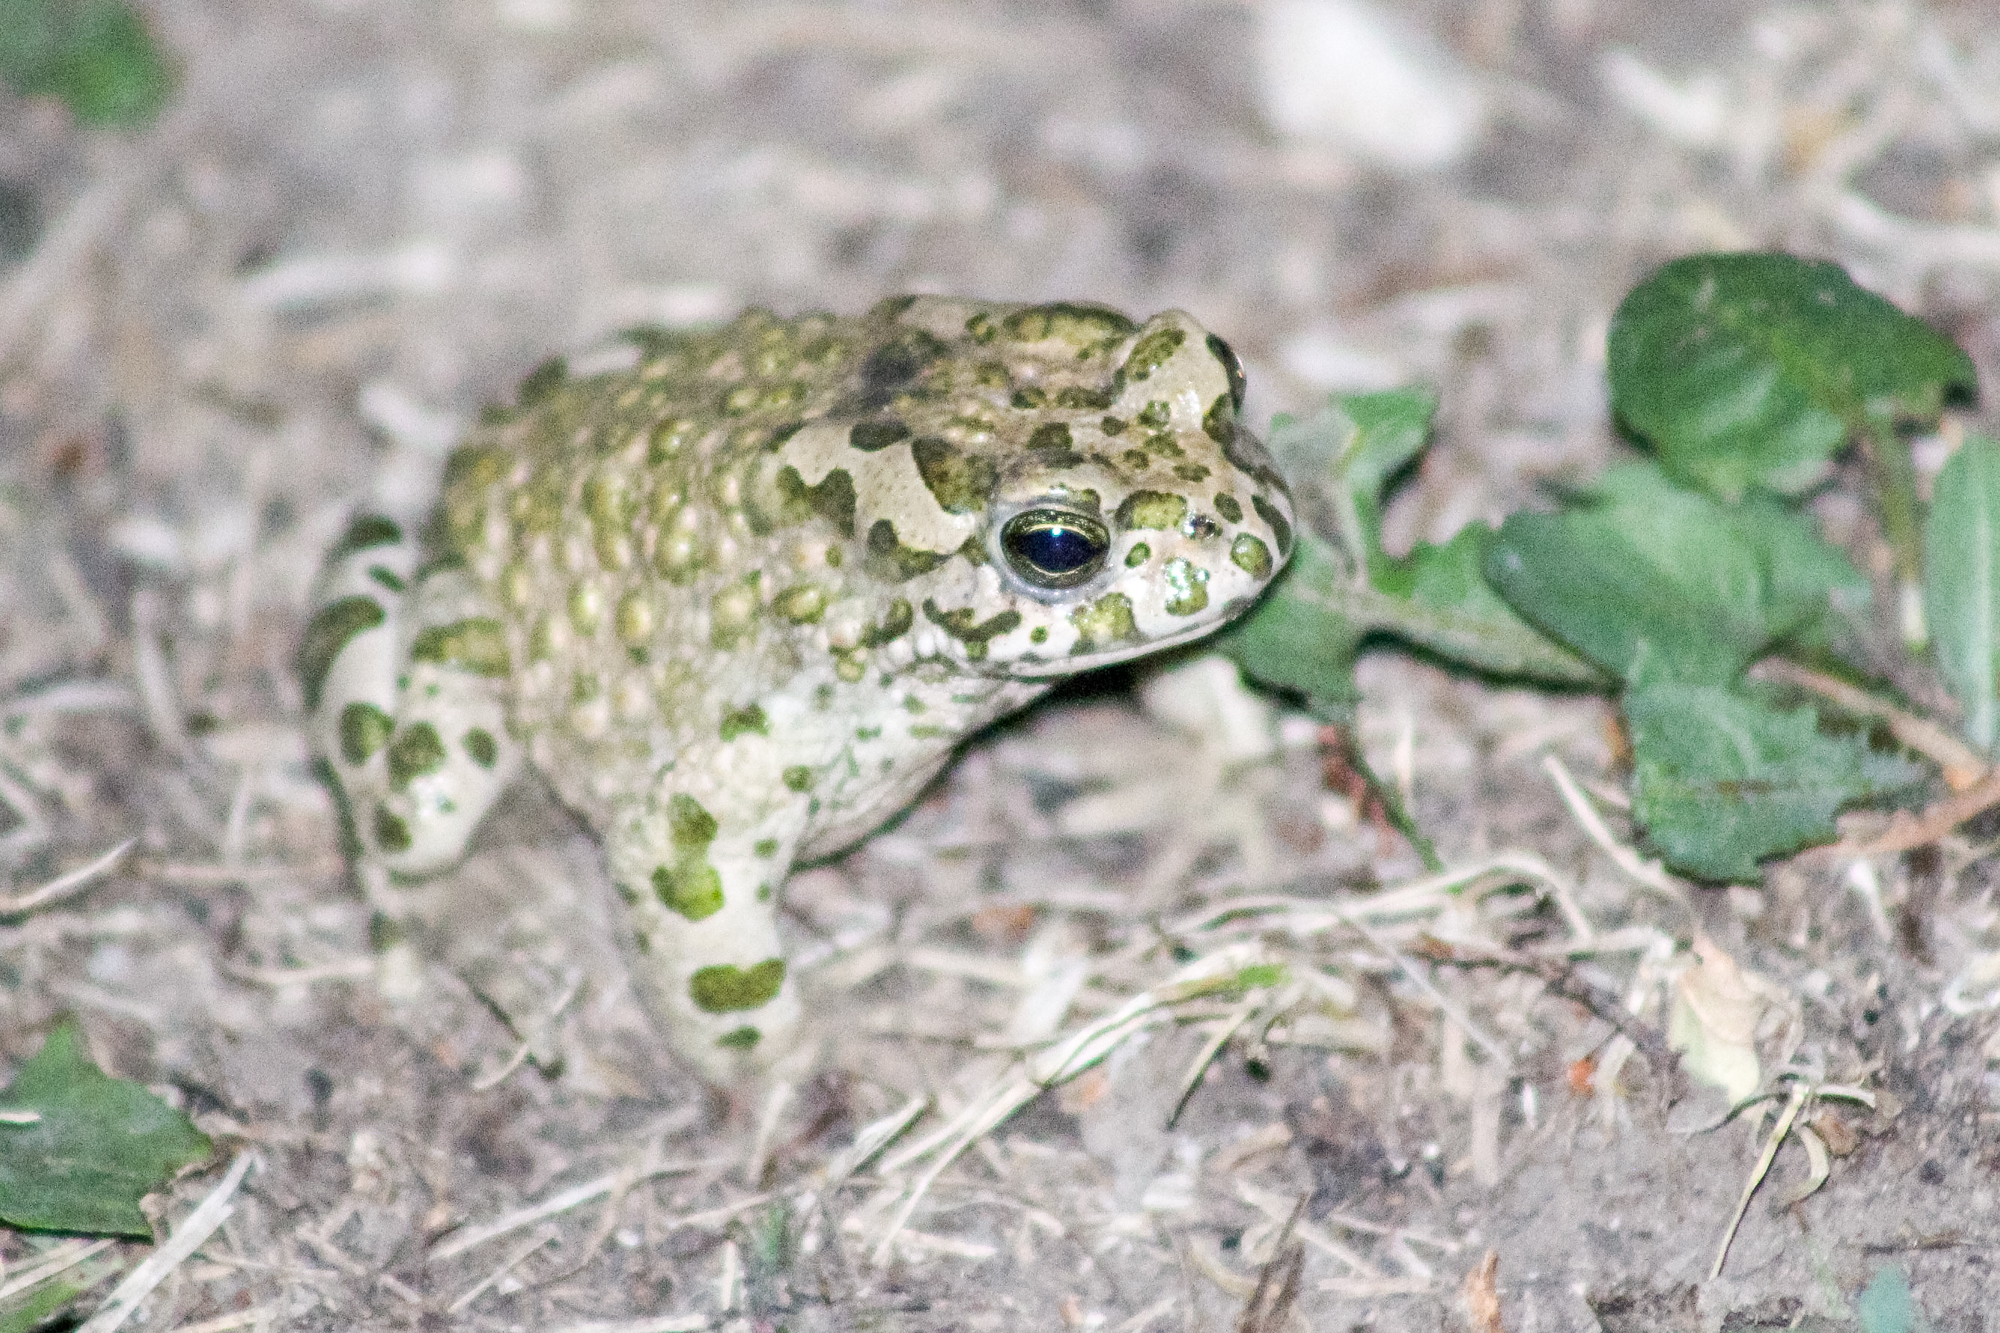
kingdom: Animalia
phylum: Chordata
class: Amphibia
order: Anura
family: Bufonidae
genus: Bufotes
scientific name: Bufotes viridis
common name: European green toad
